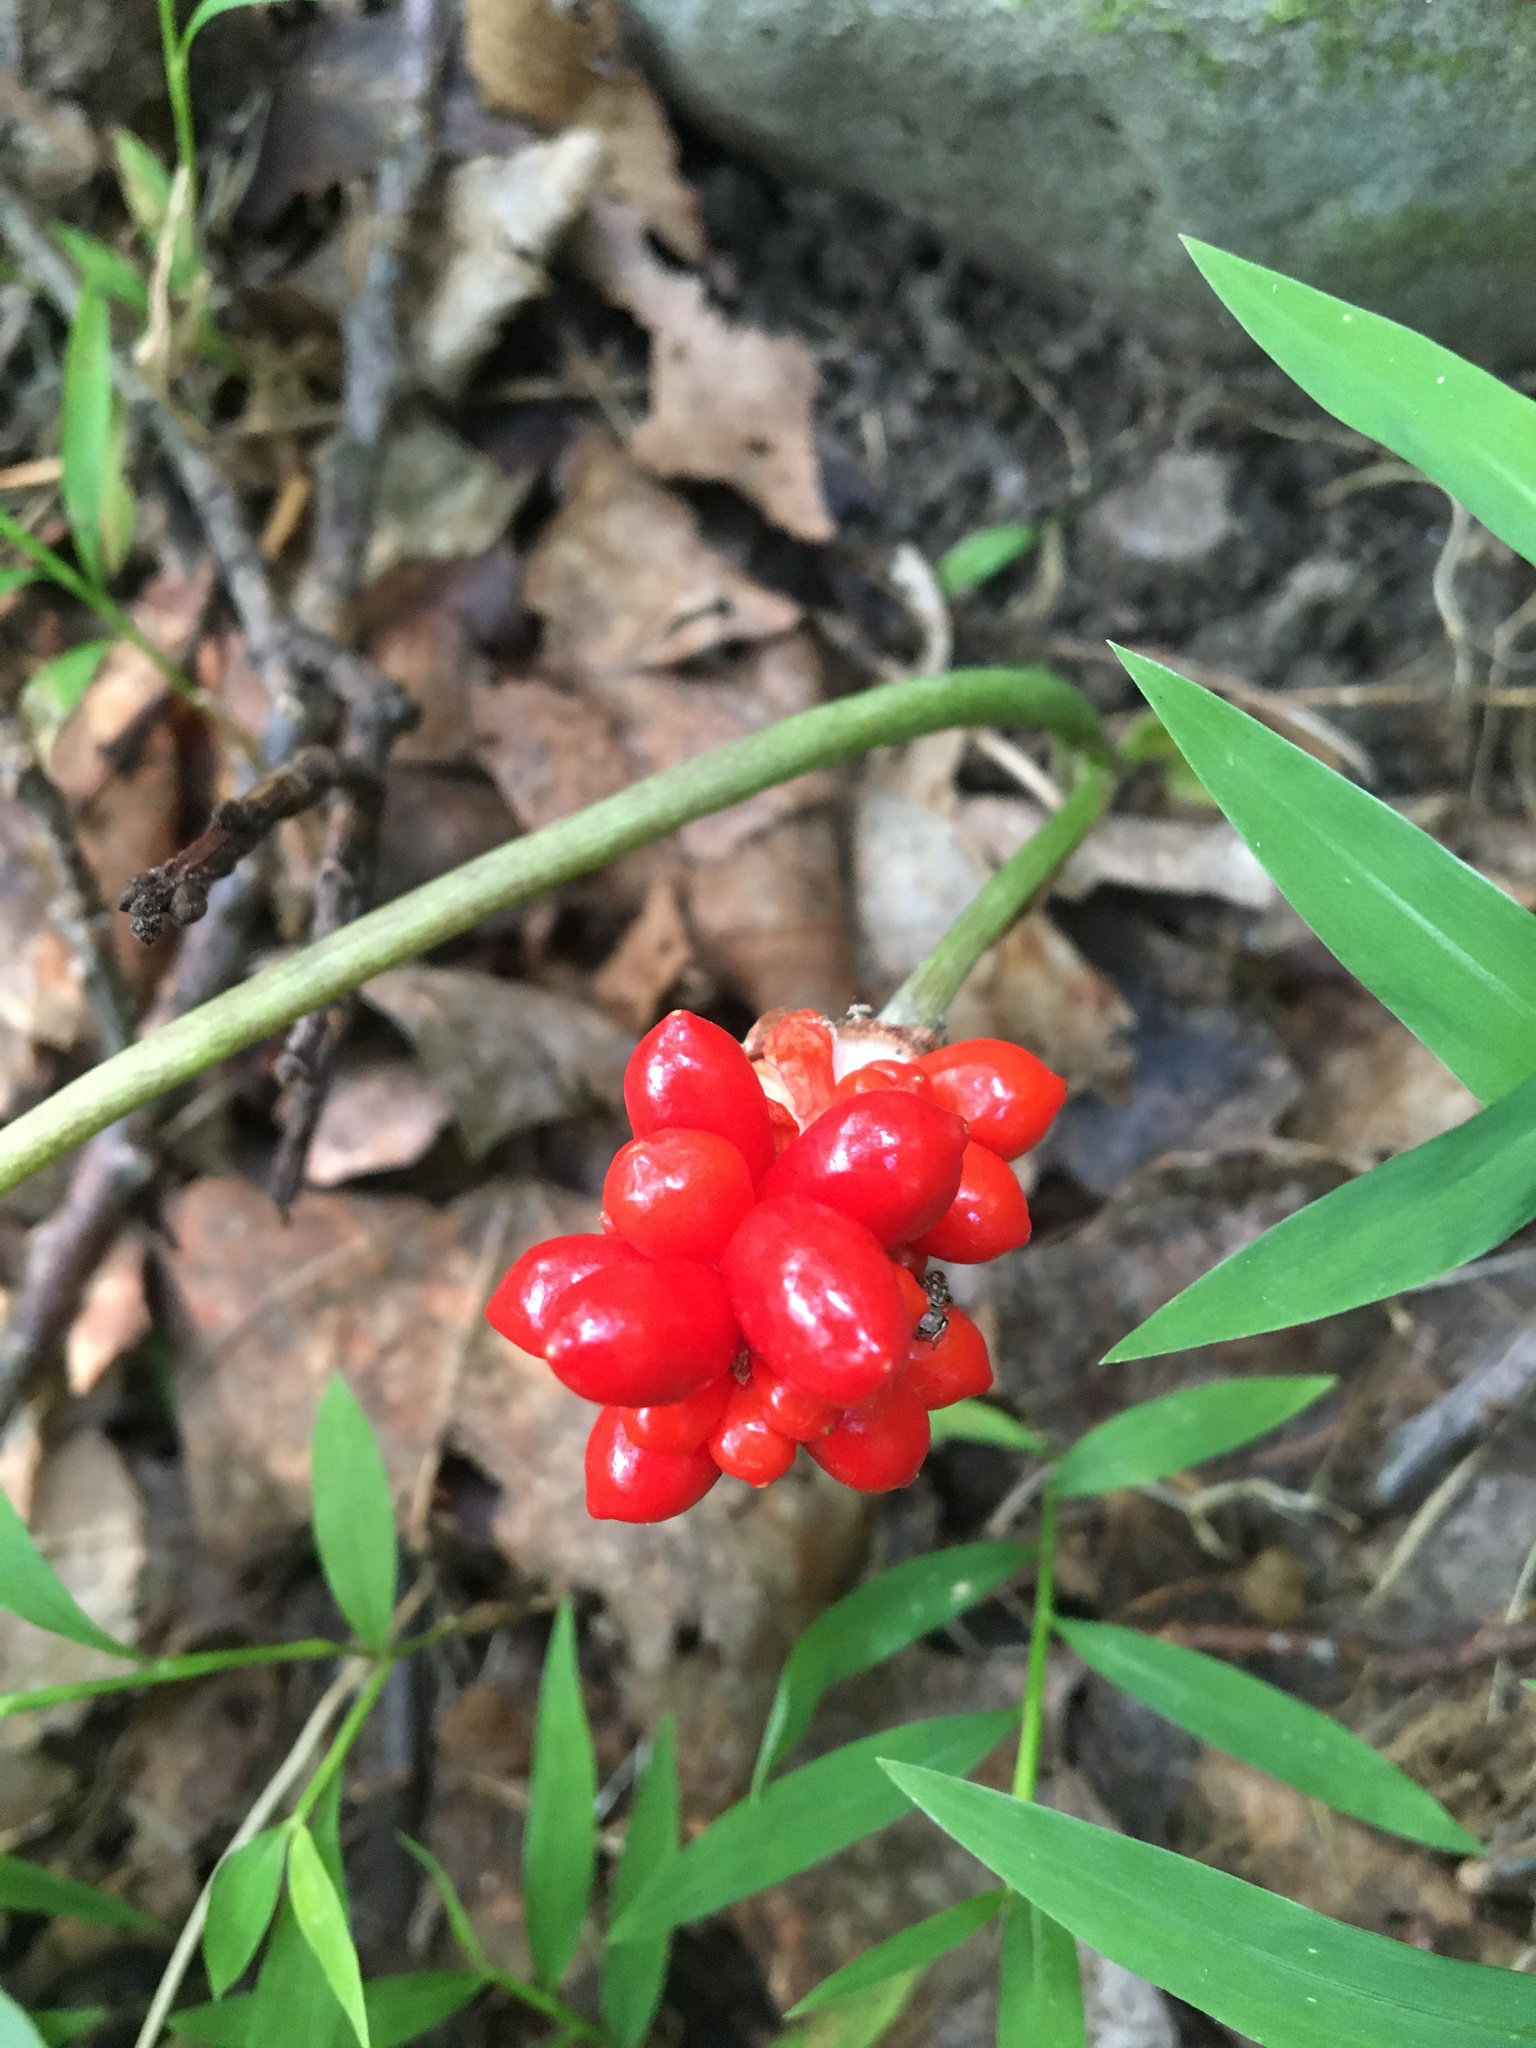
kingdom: Plantae
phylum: Tracheophyta
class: Liliopsida
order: Alismatales
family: Araceae
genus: Arisaema
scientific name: Arisaema triphyllum
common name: Jack-in-the-pulpit
